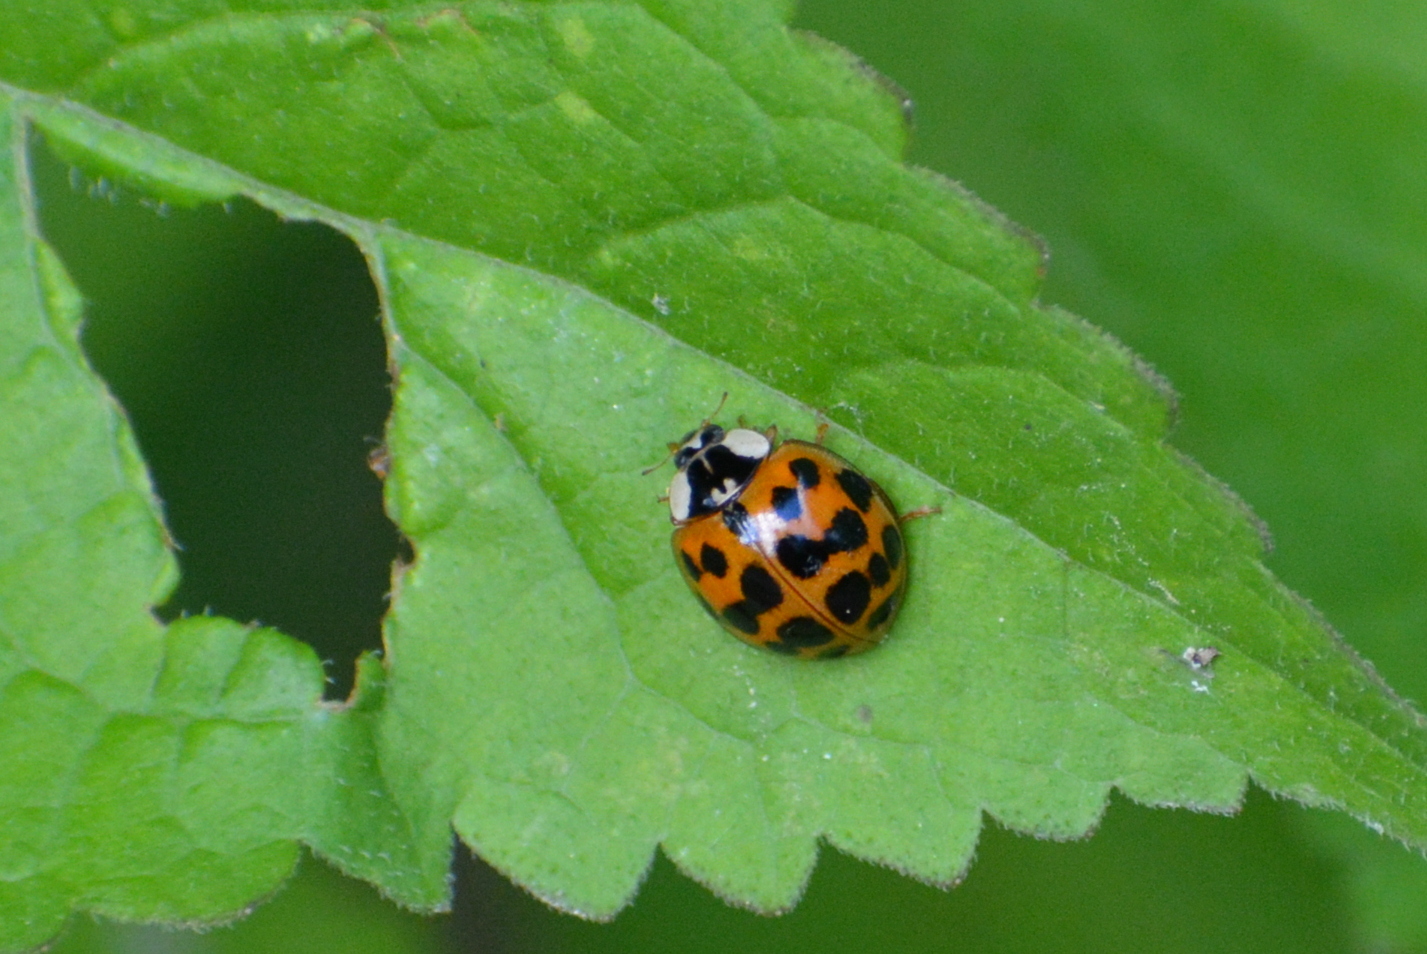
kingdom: Animalia
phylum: Arthropoda
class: Insecta
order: Coleoptera
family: Coccinellidae
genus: Harmonia
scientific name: Harmonia axyridis
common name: Harlequin ladybird
